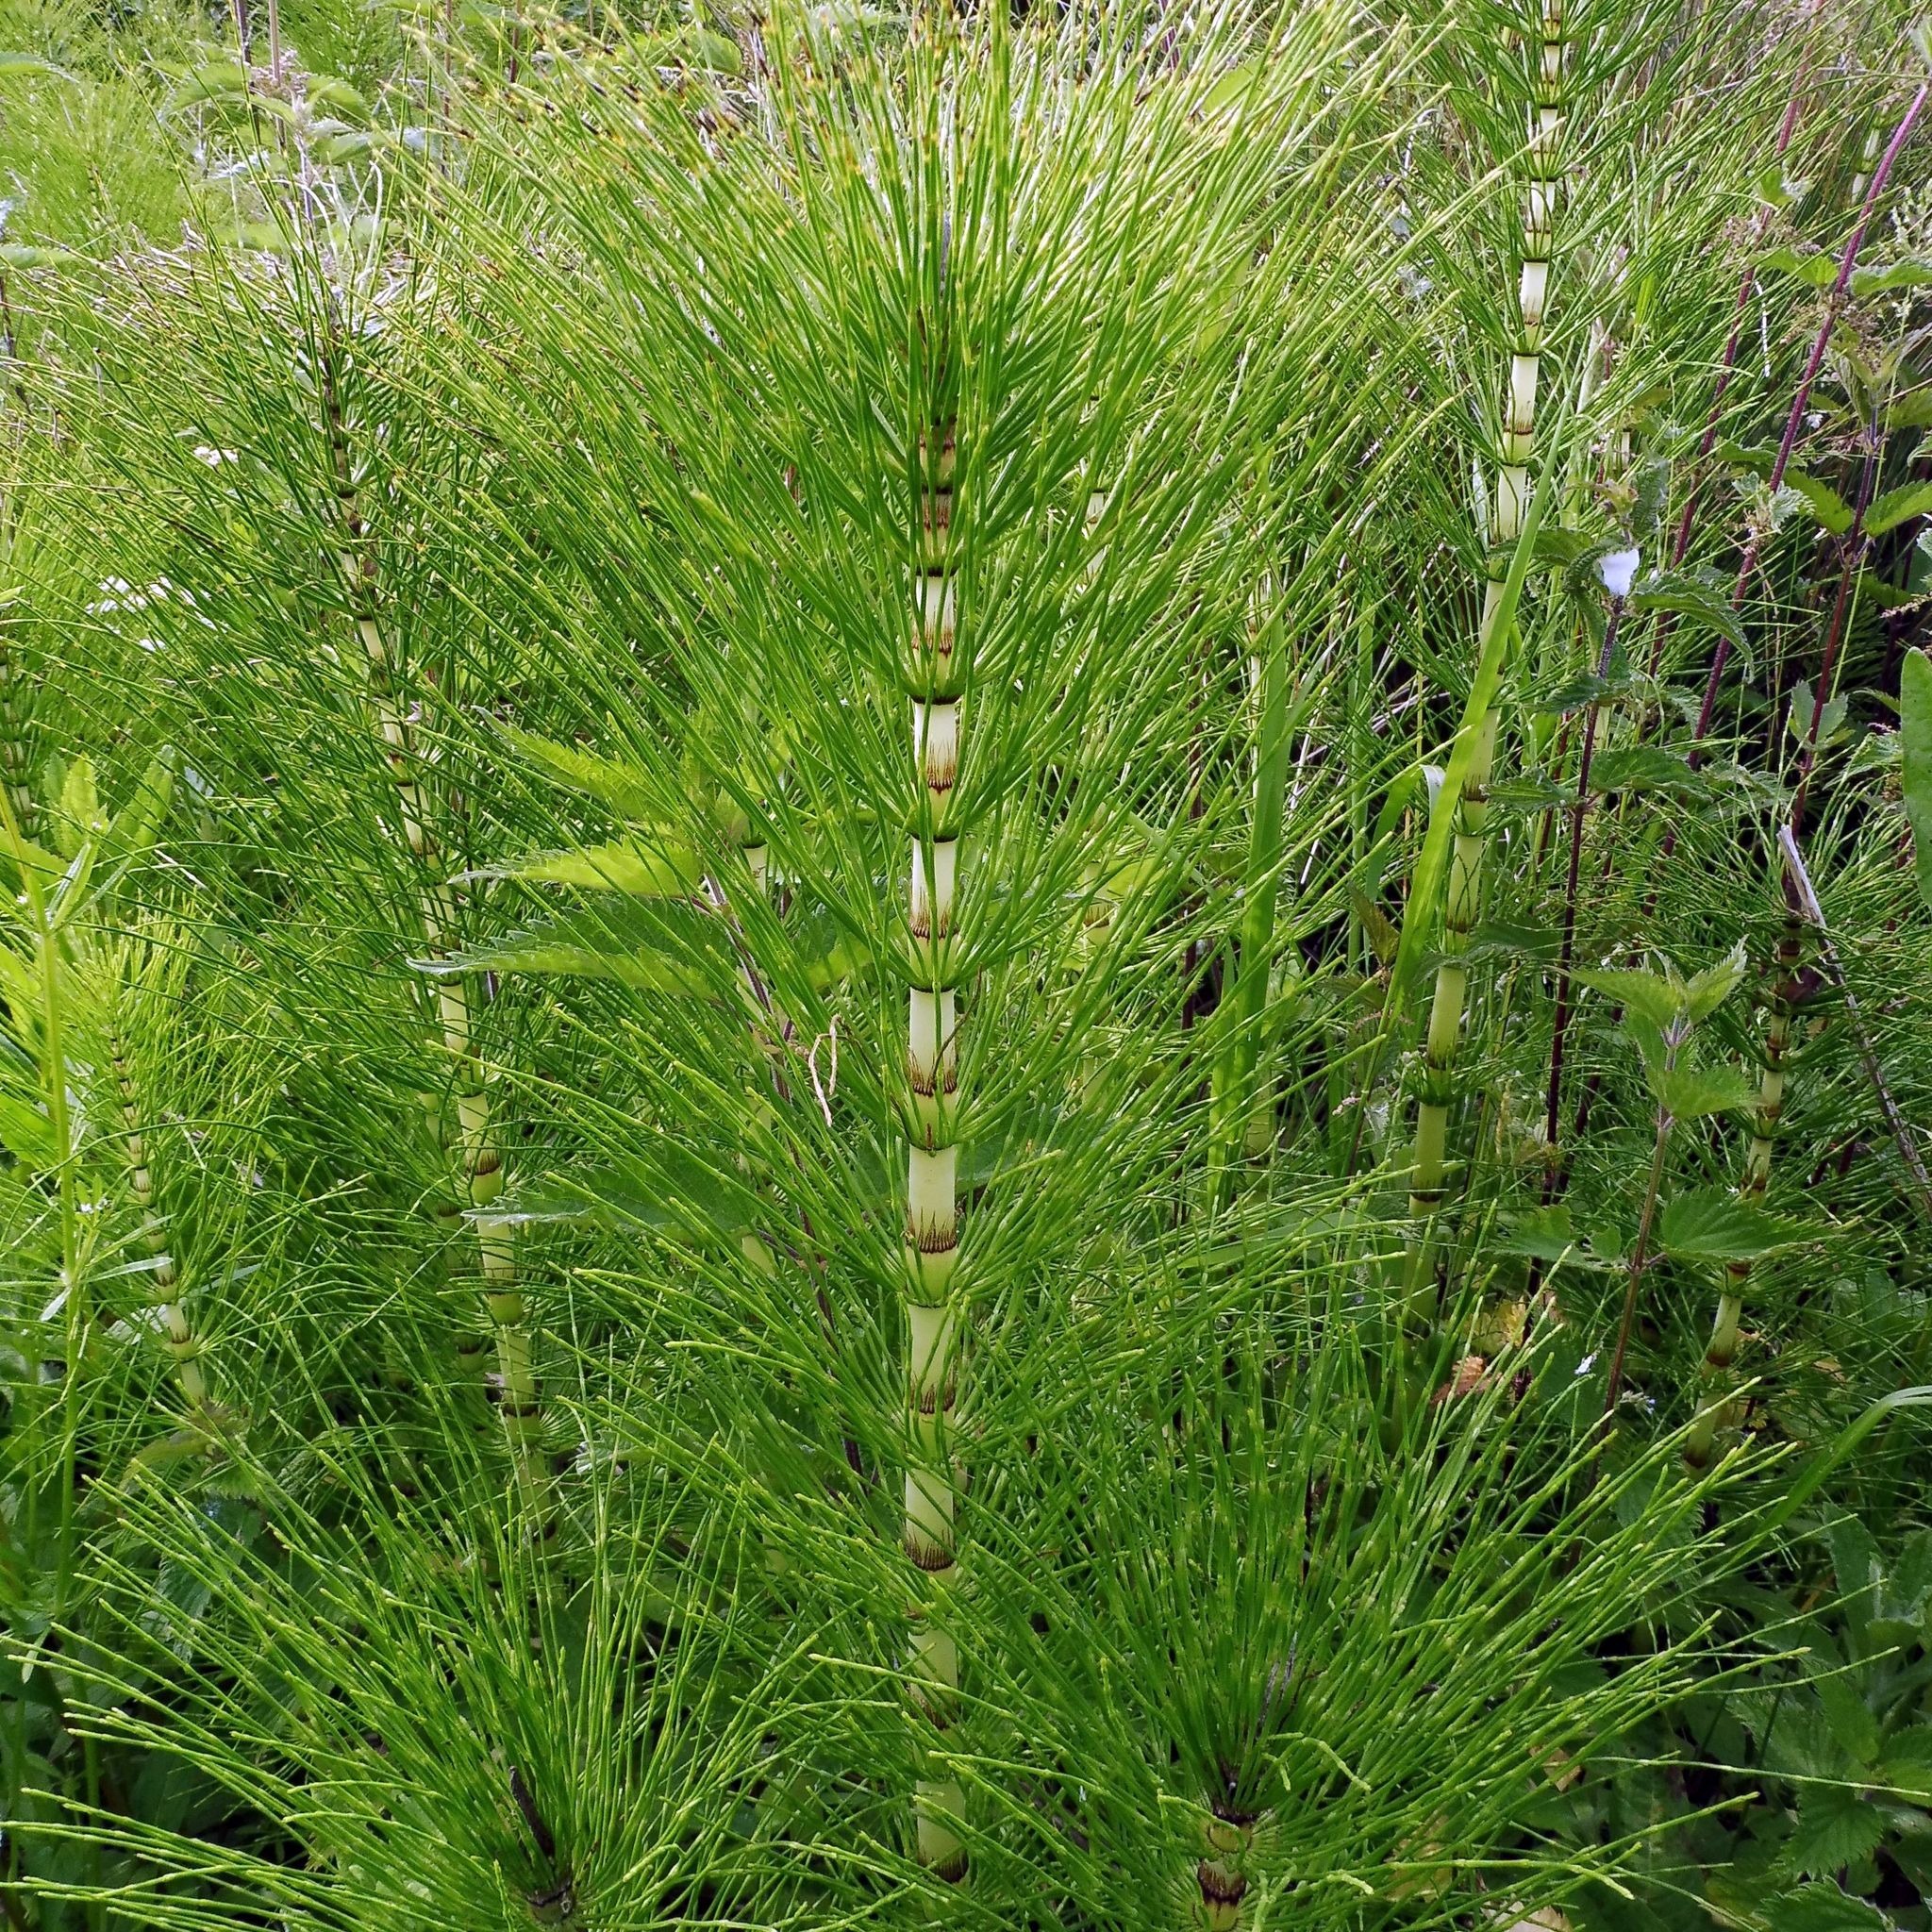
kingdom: Plantae
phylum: Tracheophyta
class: Polypodiopsida
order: Equisetales
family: Equisetaceae
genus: Equisetum
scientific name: Equisetum telmateia
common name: Great horsetail
